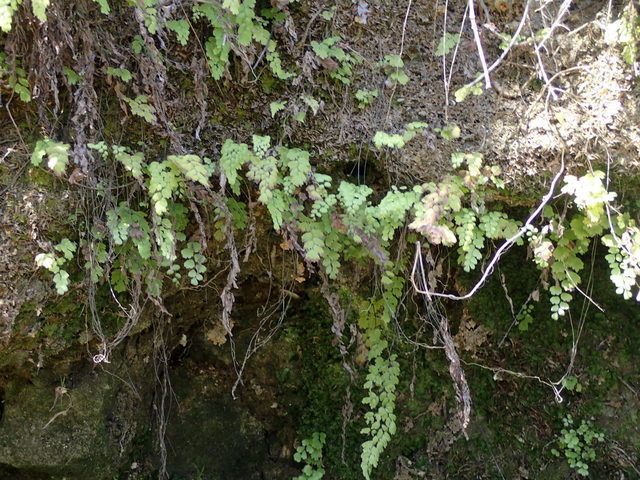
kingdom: Plantae
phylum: Tracheophyta
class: Polypodiopsida
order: Polypodiales
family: Pteridaceae
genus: Adiantum
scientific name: Adiantum capillus-veneris
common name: Maidenhair fern
